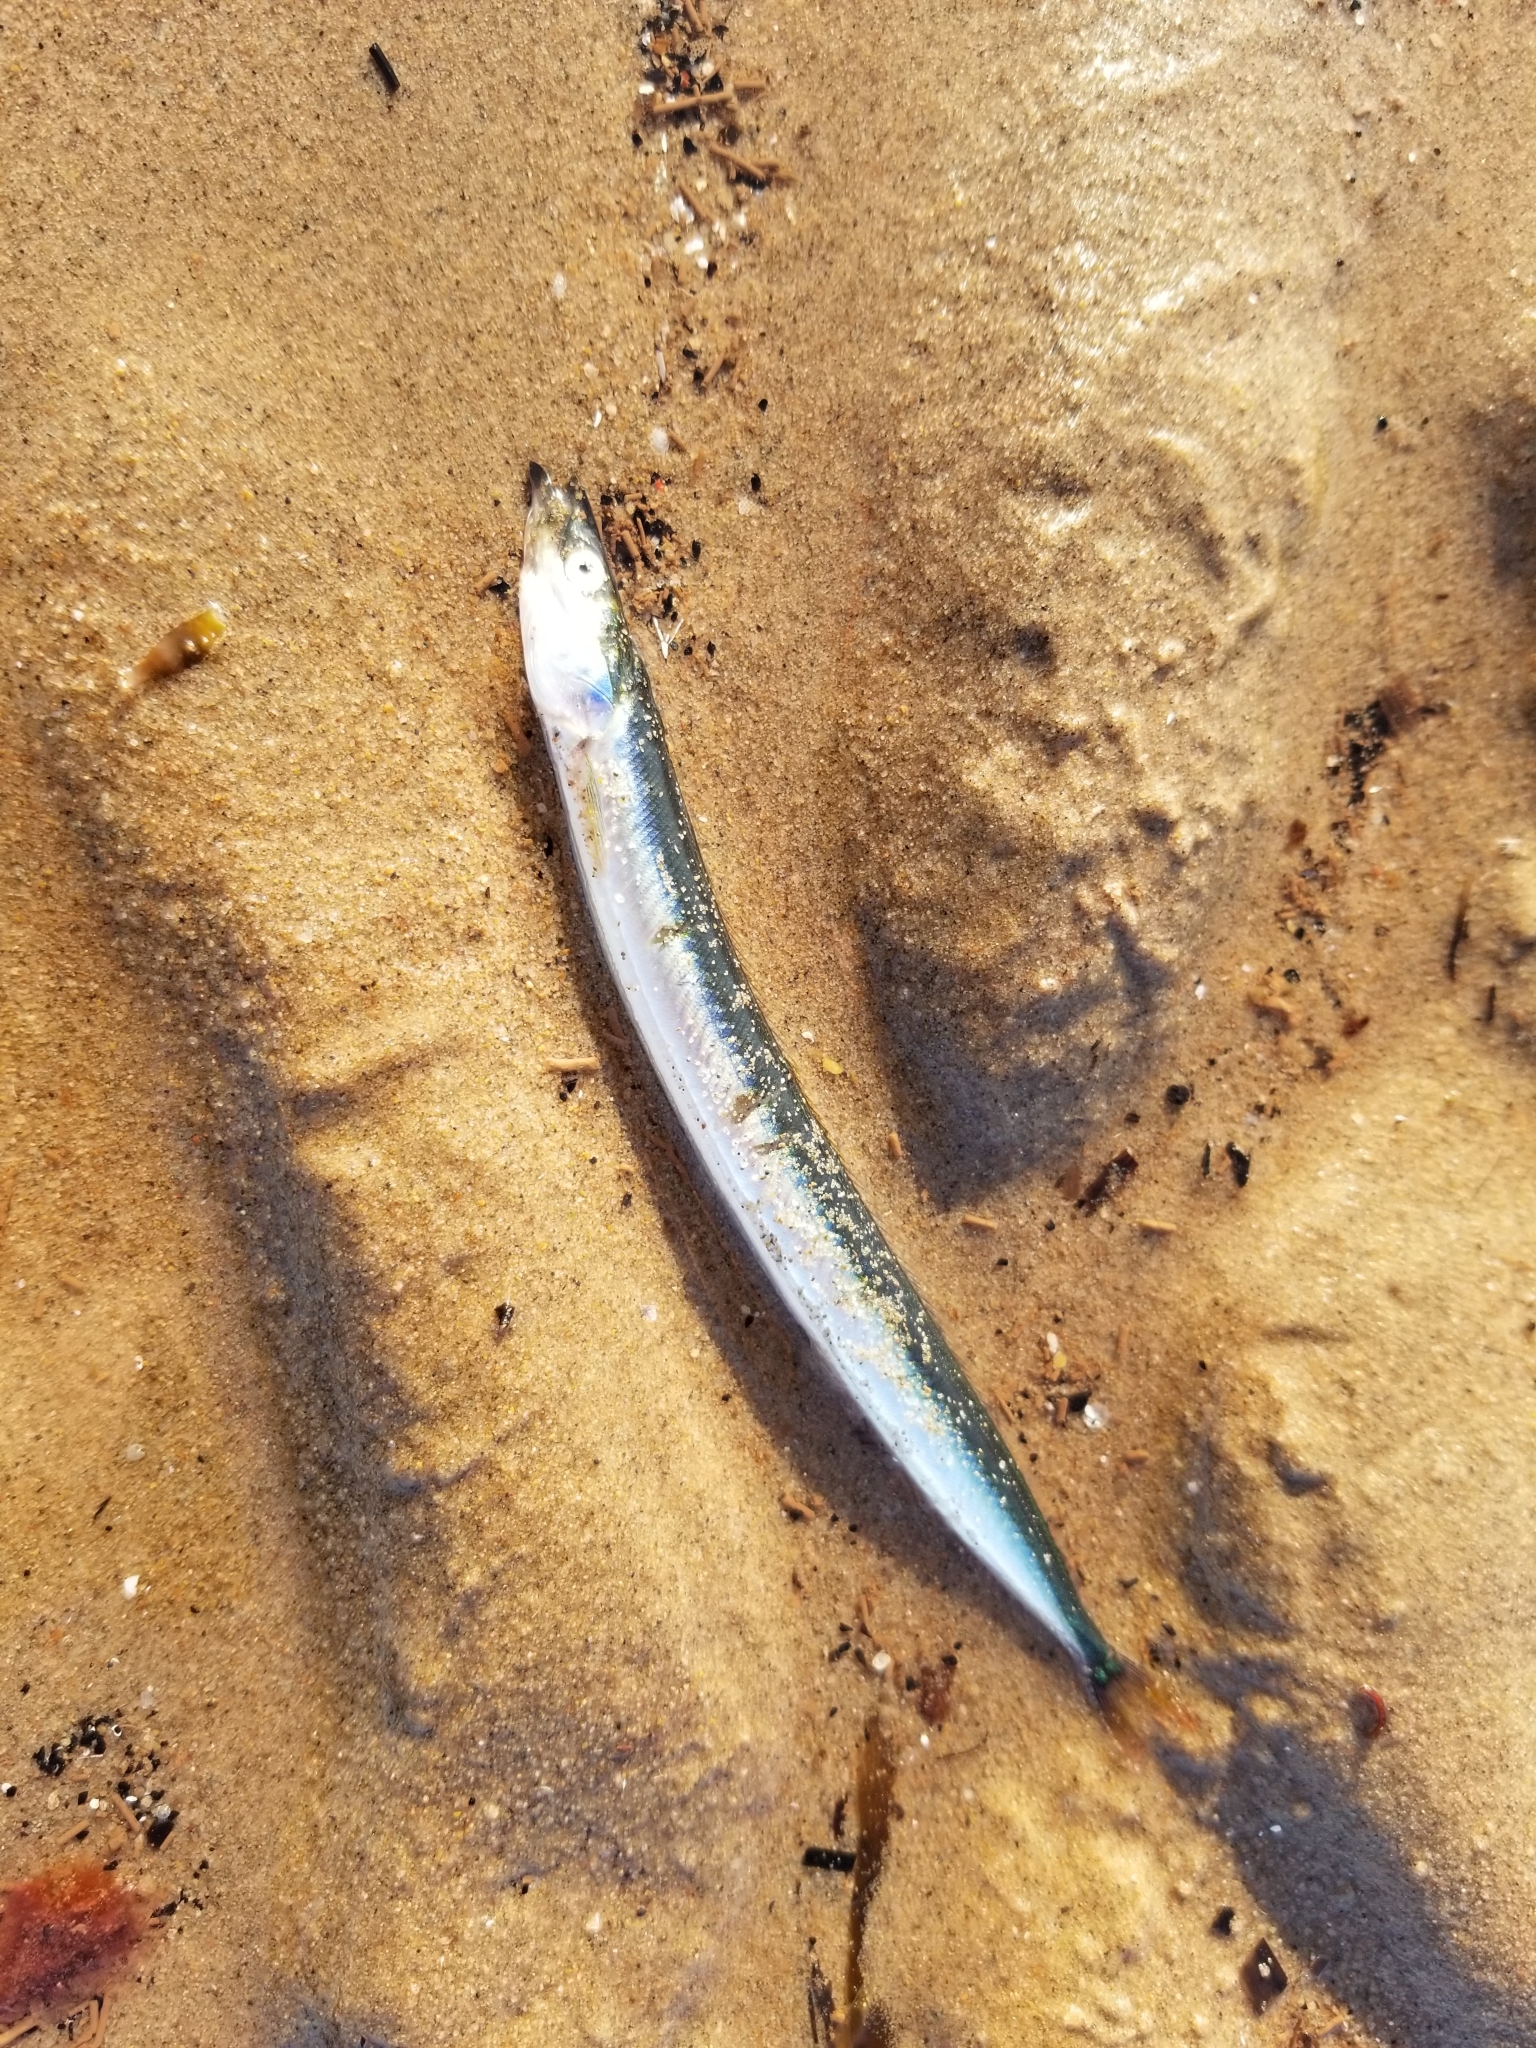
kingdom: Animalia
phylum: Chordata
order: Perciformes
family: Ammodytidae
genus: Ammodytes
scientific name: Ammodytes
